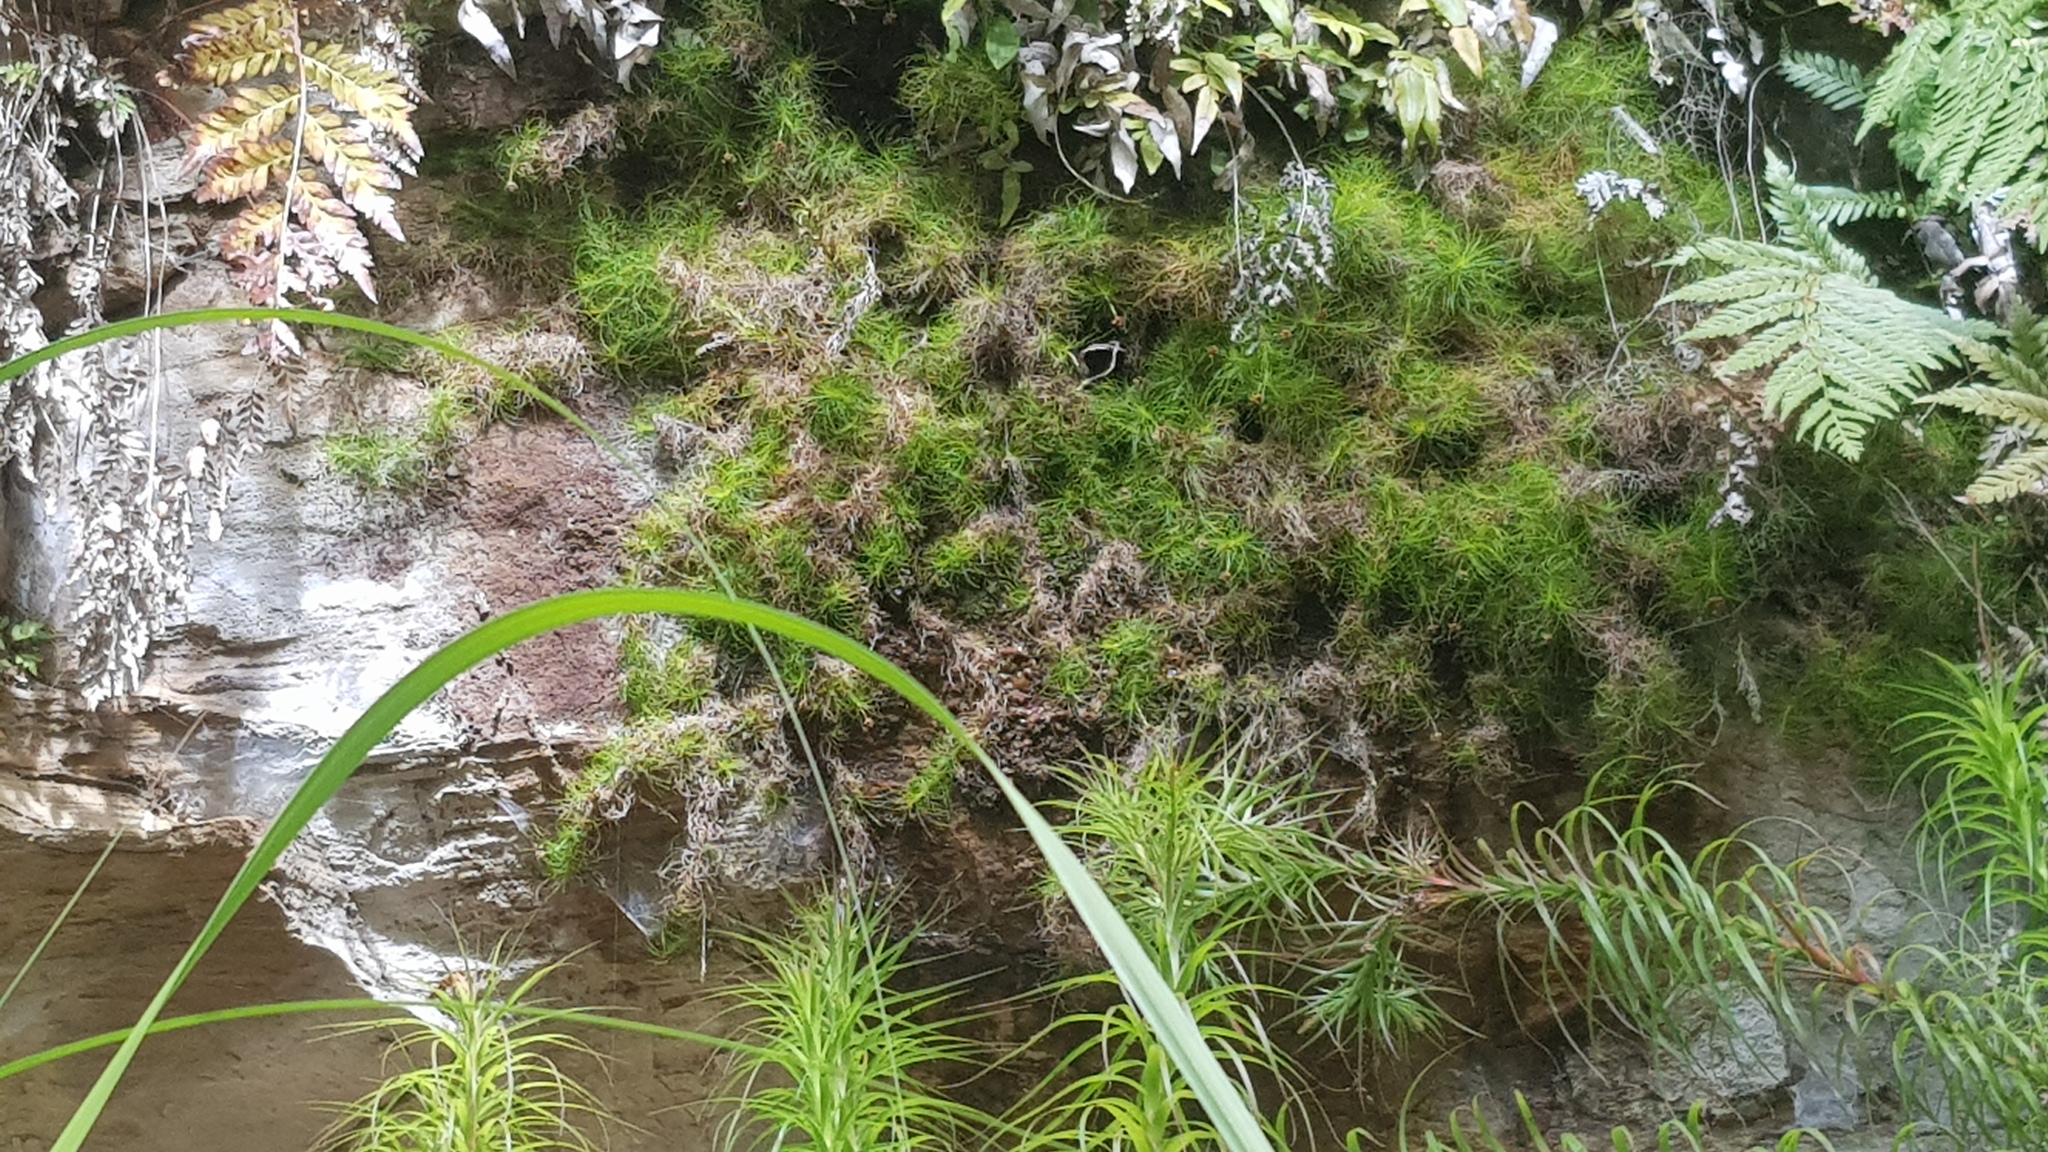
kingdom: Plantae
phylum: Tracheophyta
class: Liliopsida
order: Asparagales
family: Boryaceae
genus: Alania
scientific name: Alania cunninghamii
